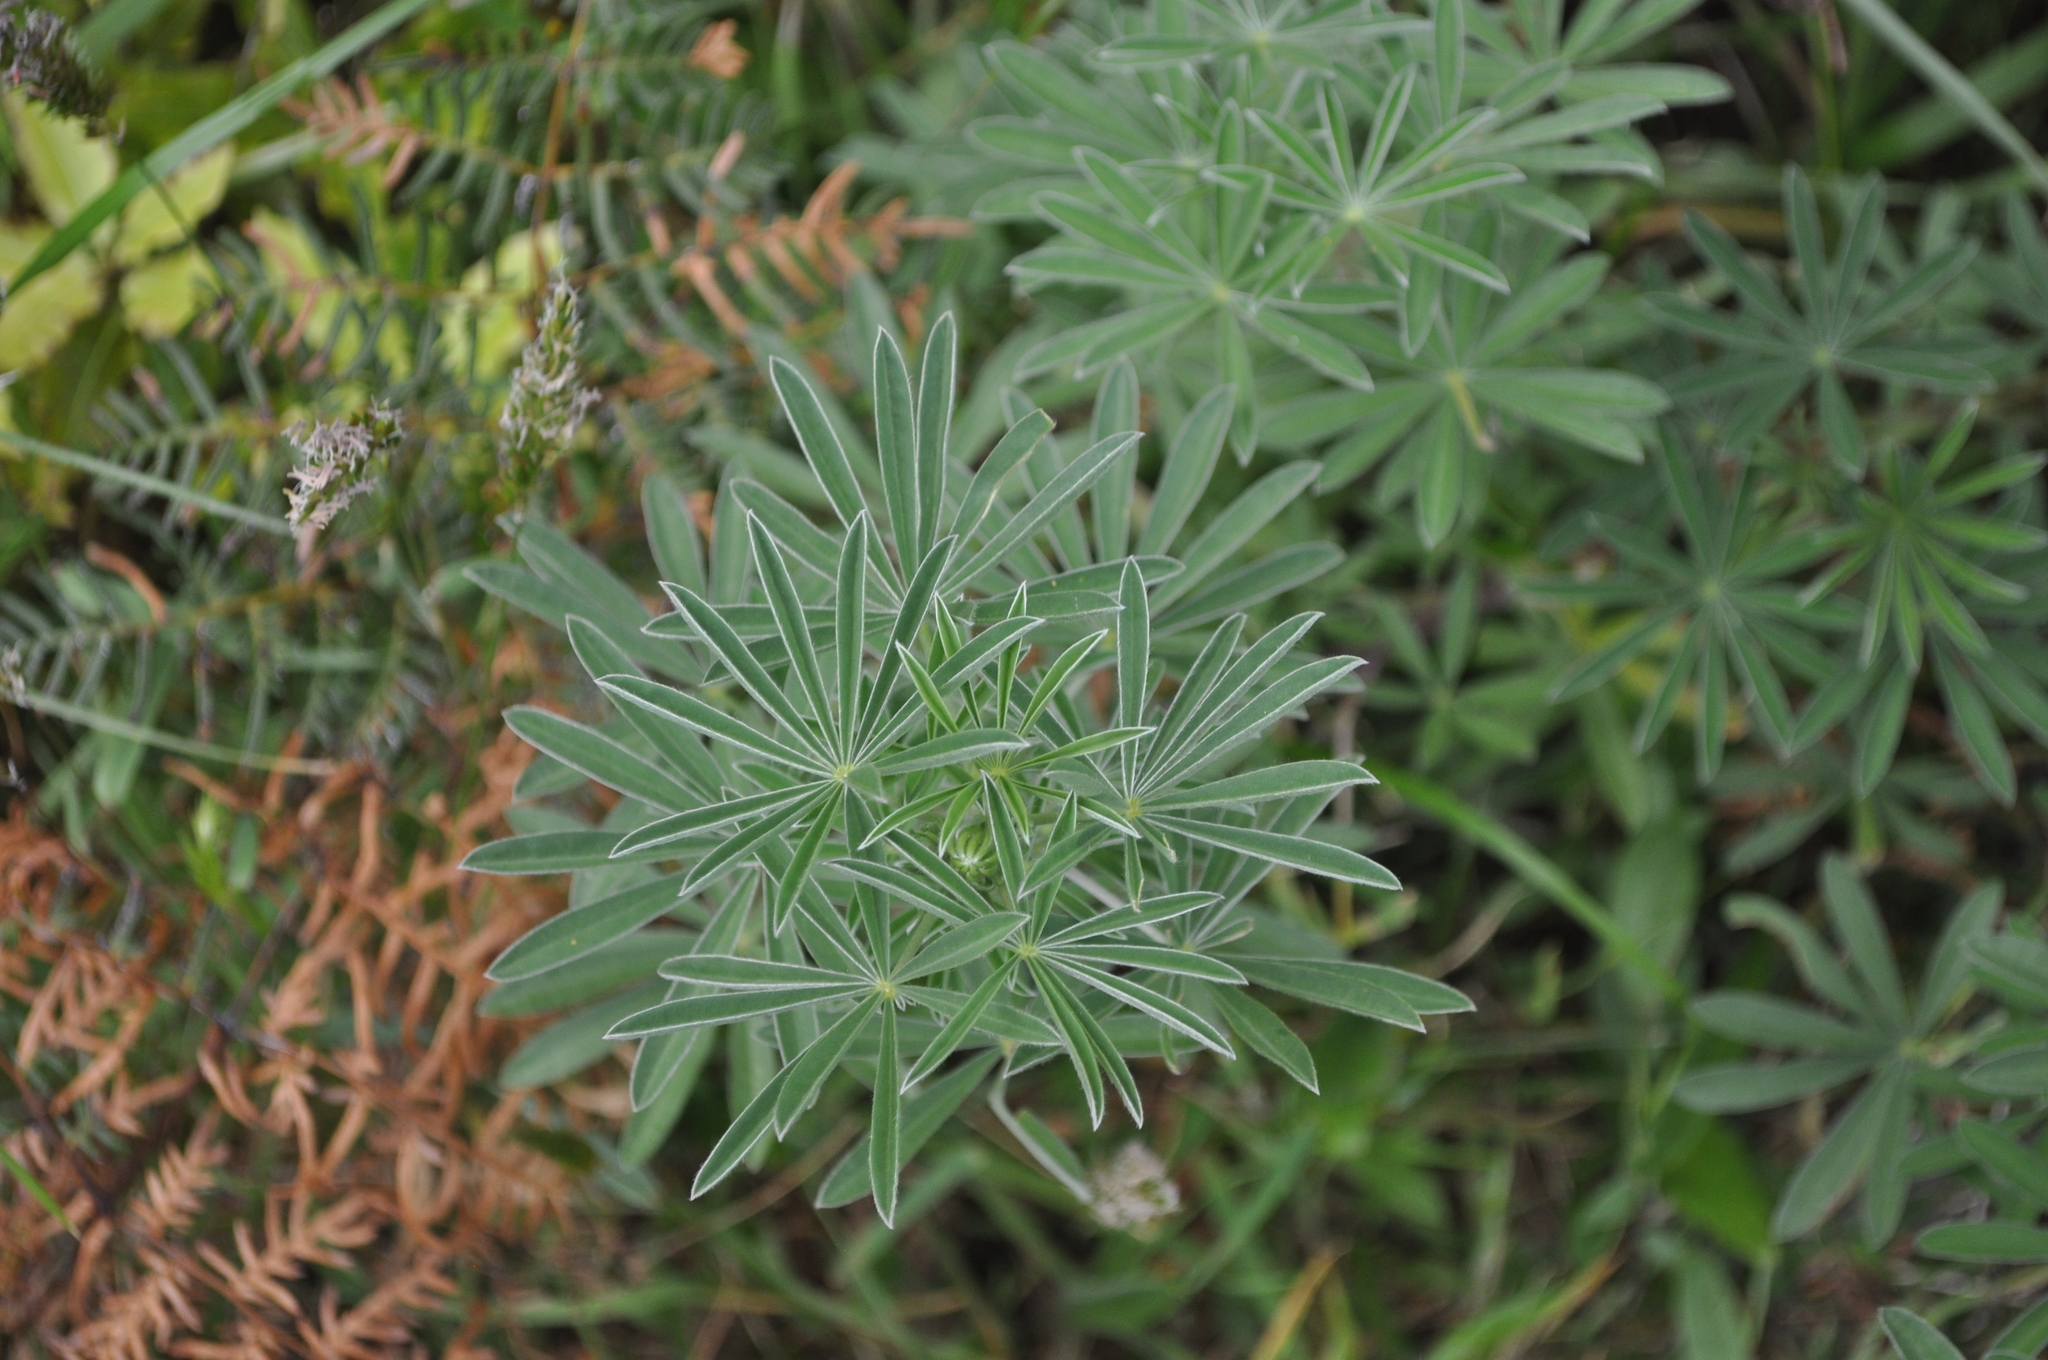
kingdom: Plantae
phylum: Tracheophyta
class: Magnoliopsida
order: Fabales
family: Fabaceae
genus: Lupinus
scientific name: Lupinus arboreus
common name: Yellow bush lupine
